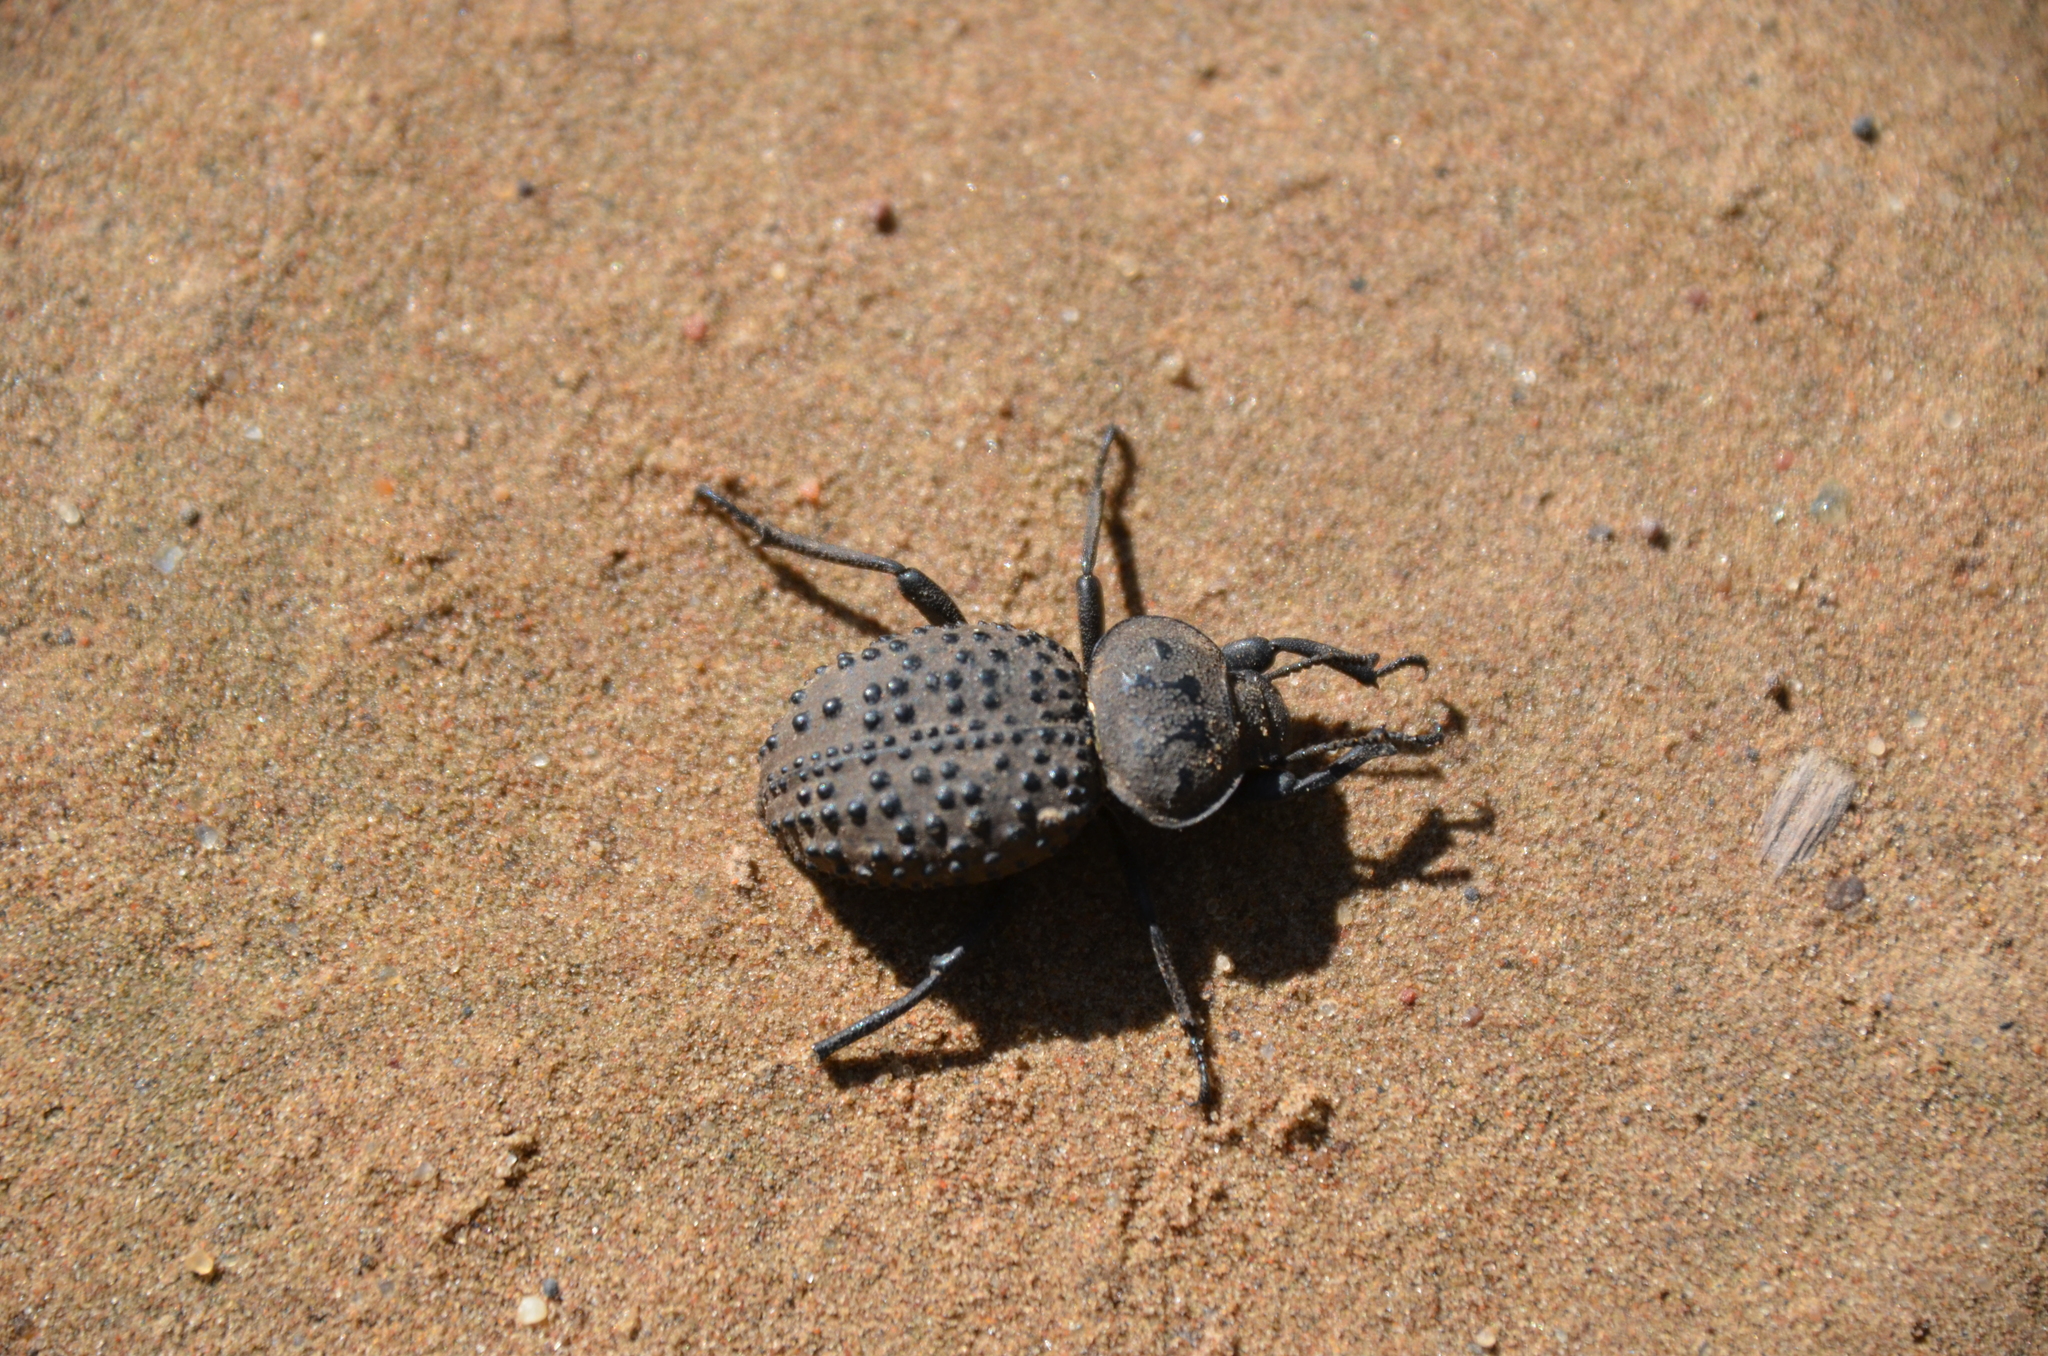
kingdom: Animalia
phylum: Arthropoda
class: Insecta
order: Coleoptera
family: Tenebrionidae
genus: Scotobius
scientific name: Scotobius pilularius
